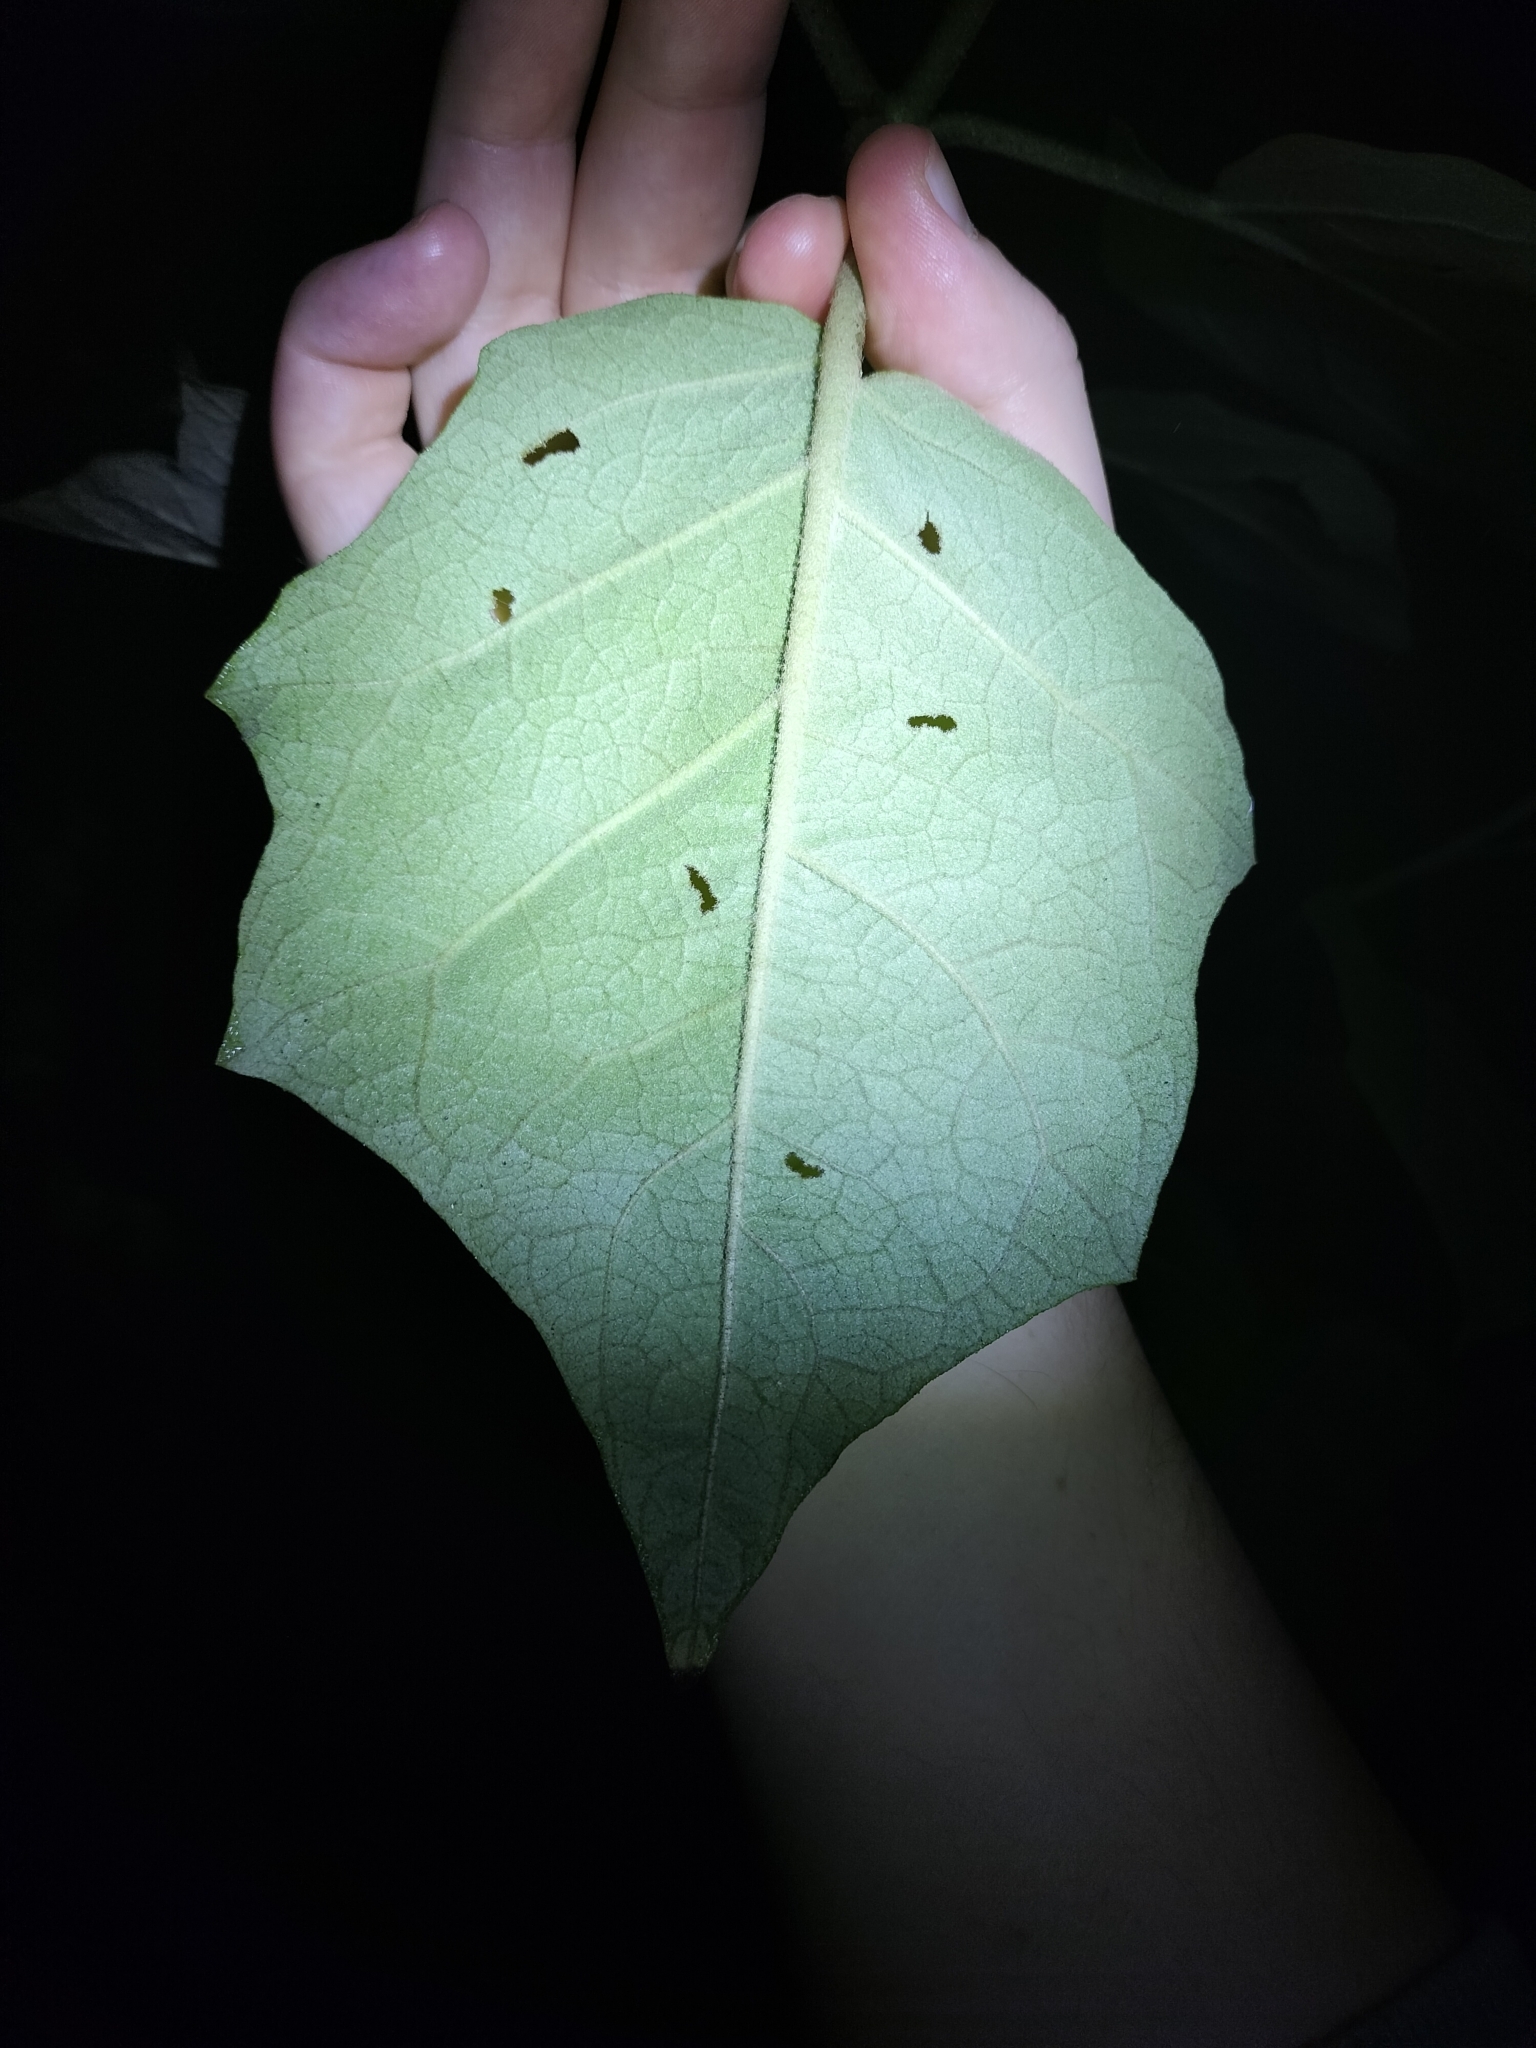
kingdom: Plantae
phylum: Tracheophyta
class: Magnoliopsida
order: Solanales
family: Solanaceae
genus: Solanum
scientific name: Solanum torvum
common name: Turkey berry
